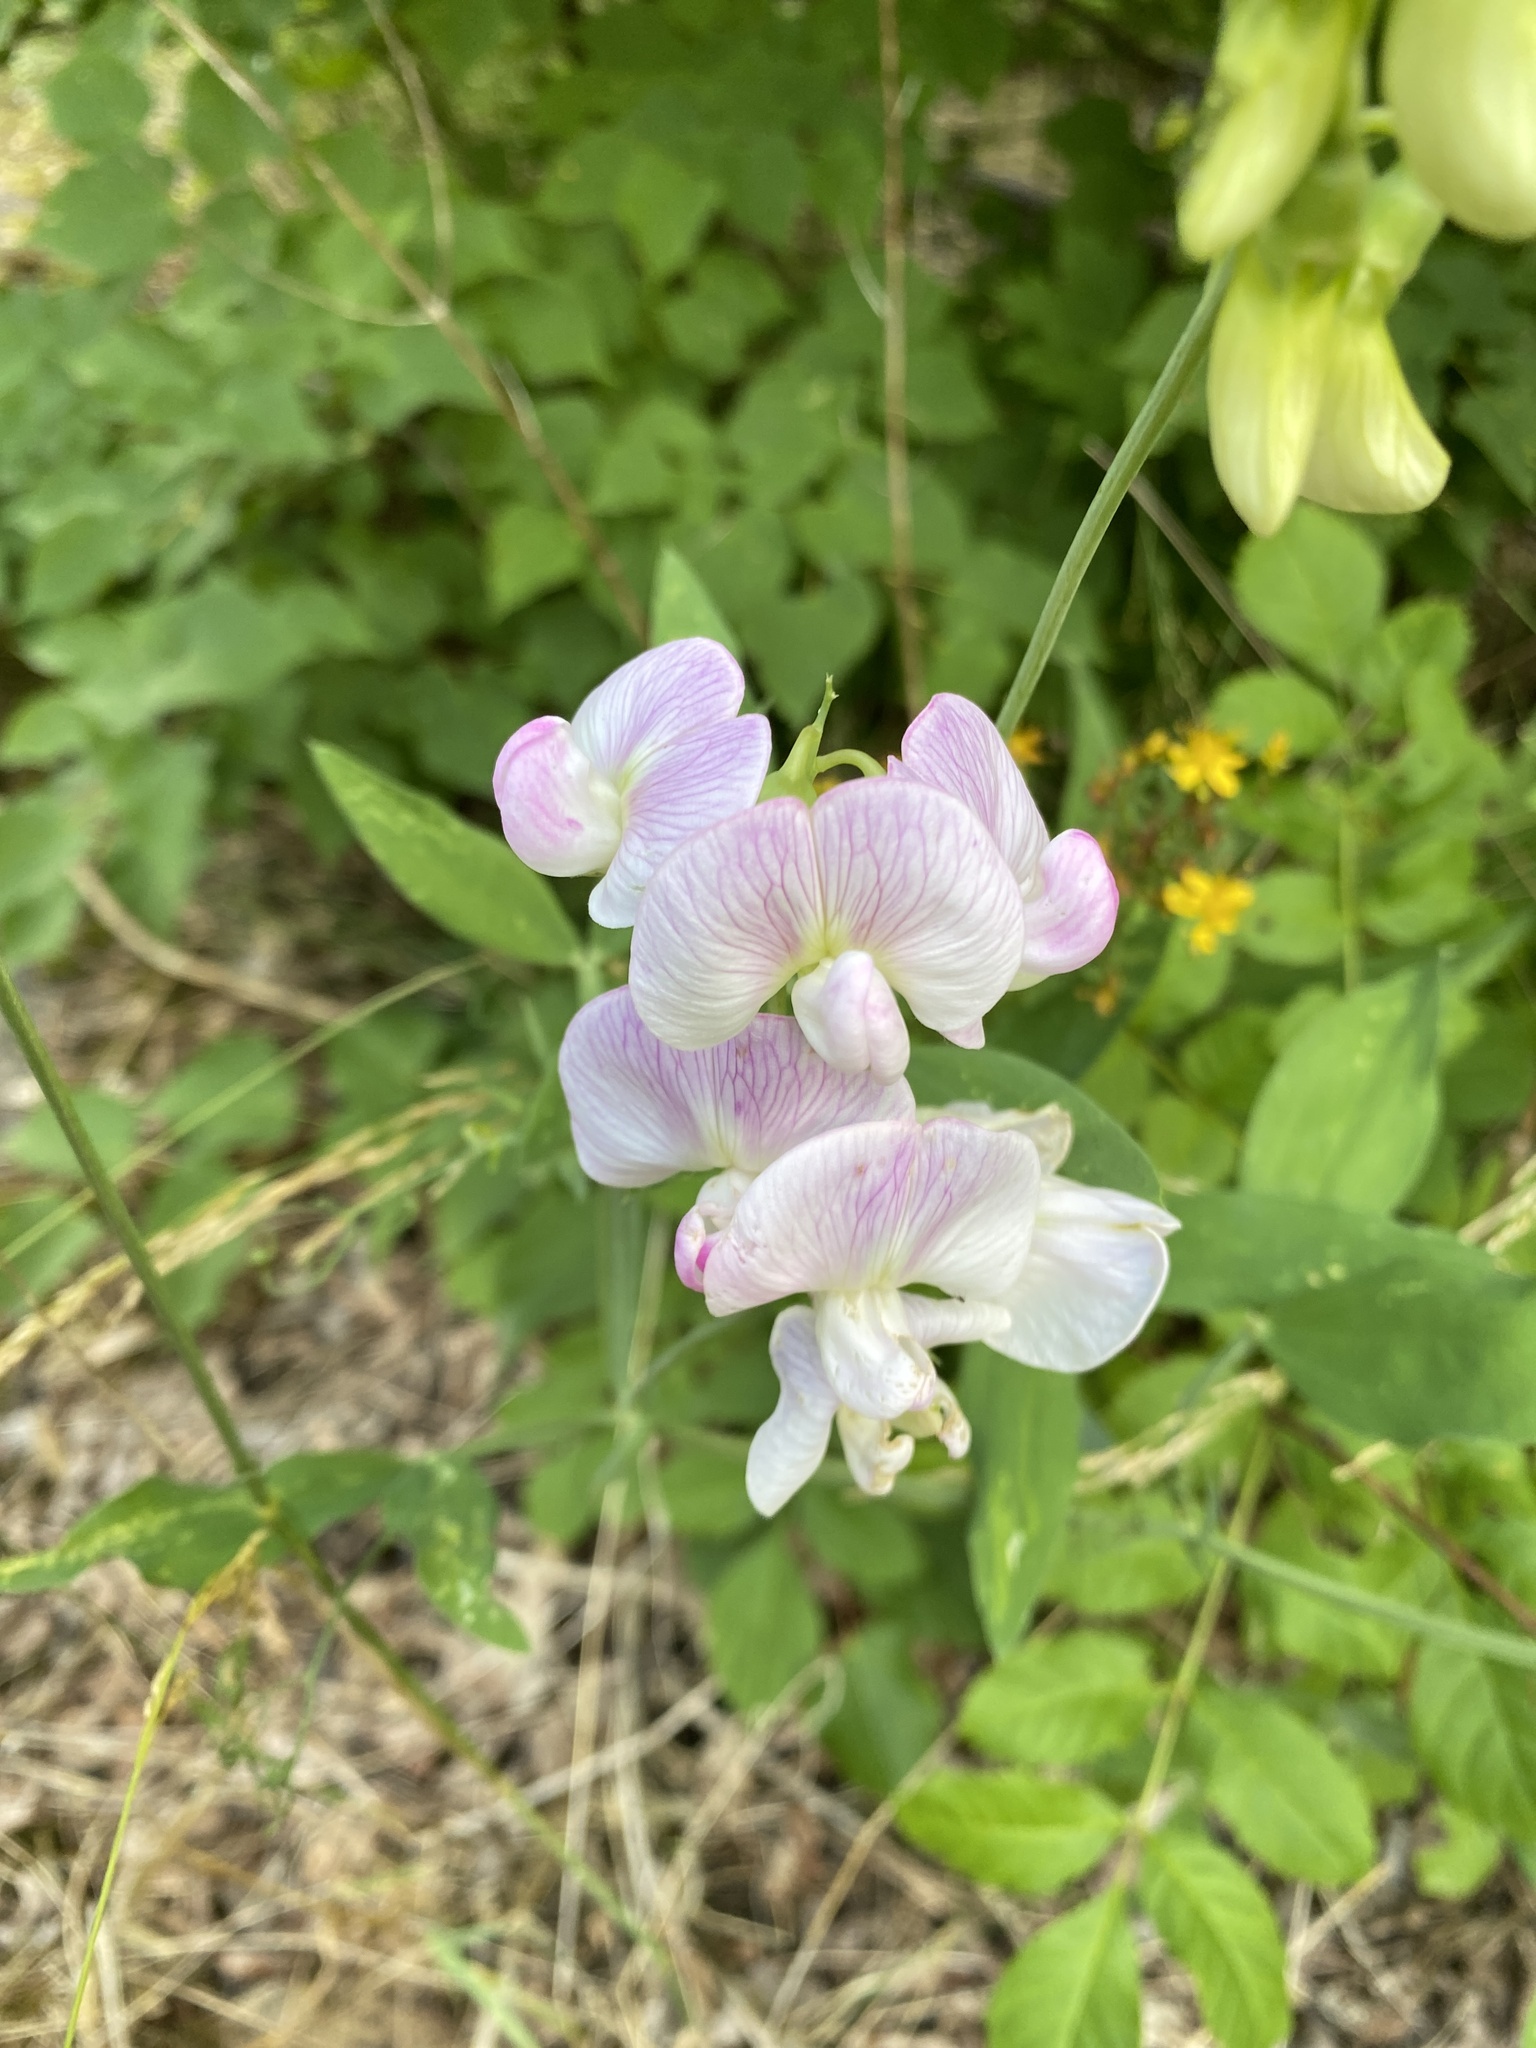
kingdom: Plantae
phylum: Tracheophyta
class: Magnoliopsida
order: Fabales
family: Fabaceae
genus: Lathyrus
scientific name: Lathyrus latifolius
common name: Perennial pea
